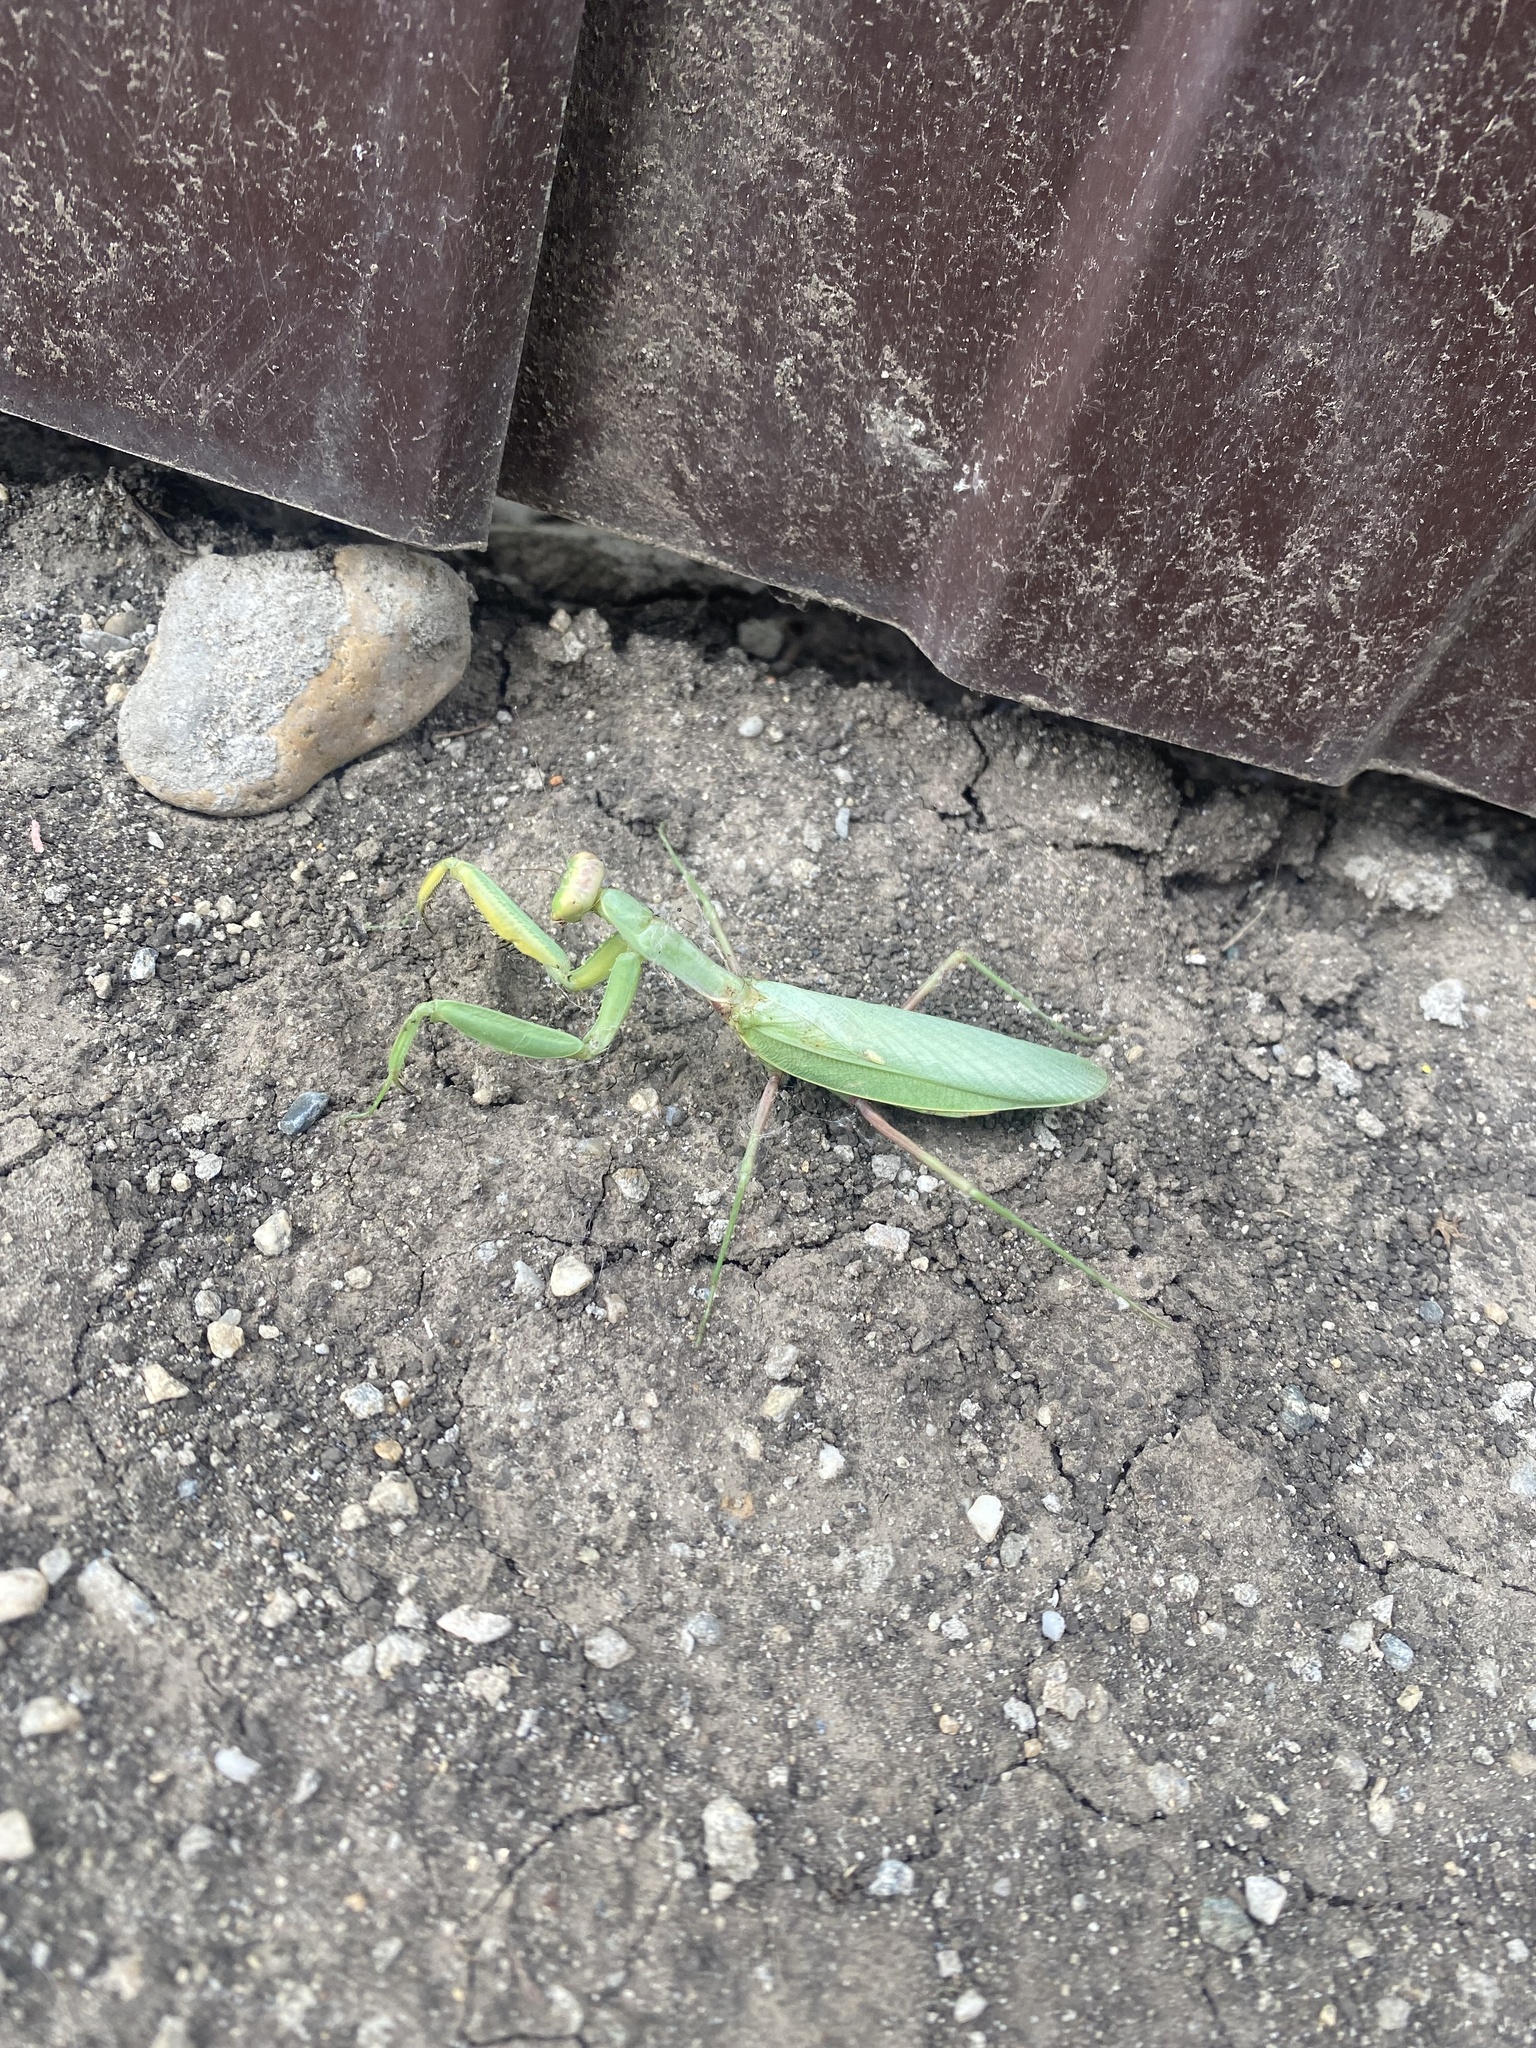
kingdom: Animalia
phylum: Arthropoda
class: Insecta
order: Mantodea
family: Mantidae
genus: Hierodula
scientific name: Hierodula transcaucasica
